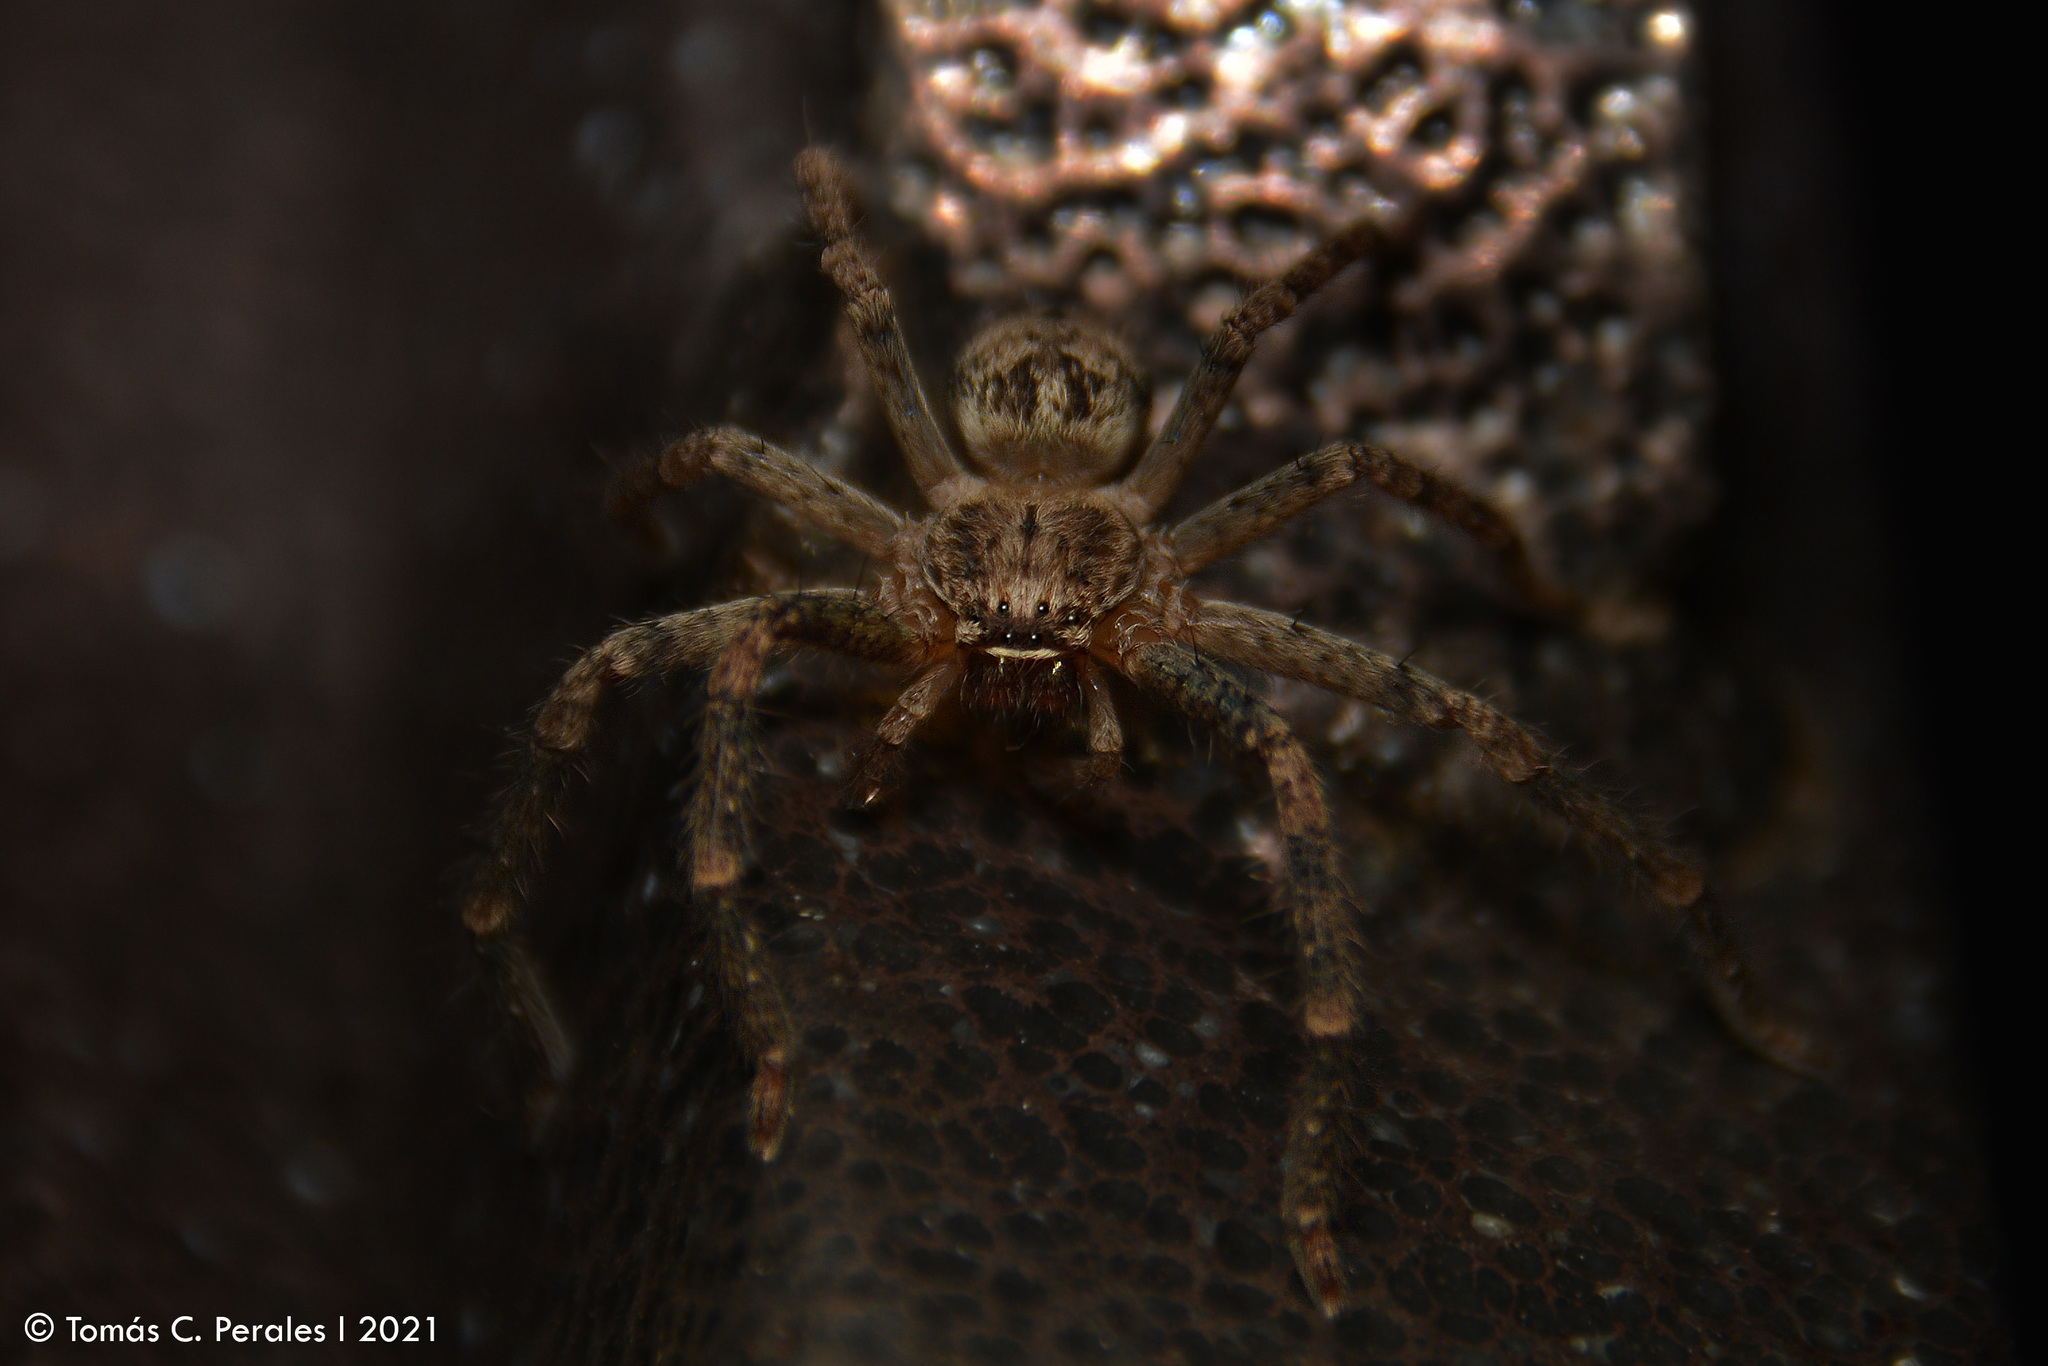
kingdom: Animalia
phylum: Arthropoda
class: Arachnida
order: Araneae
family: Sparassidae
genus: Polybetes
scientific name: Polybetes rapidus
